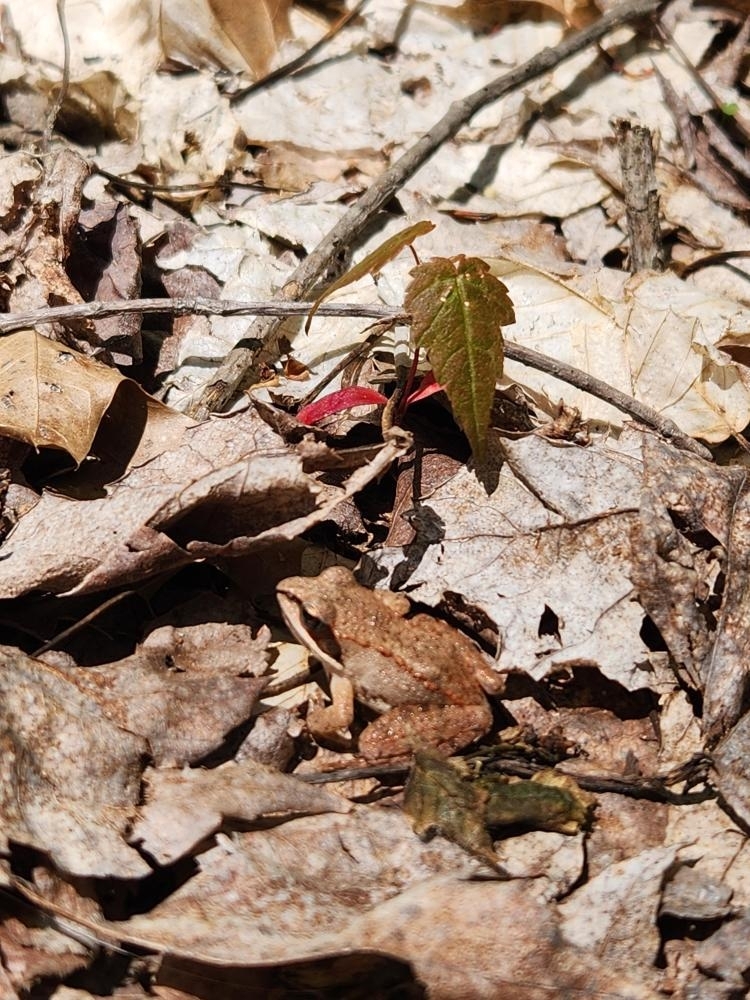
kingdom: Animalia
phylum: Chordata
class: Amphibia
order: Anura
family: Ranidae
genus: Lithobates
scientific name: Lithobates sylvaticus
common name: Wood frog
